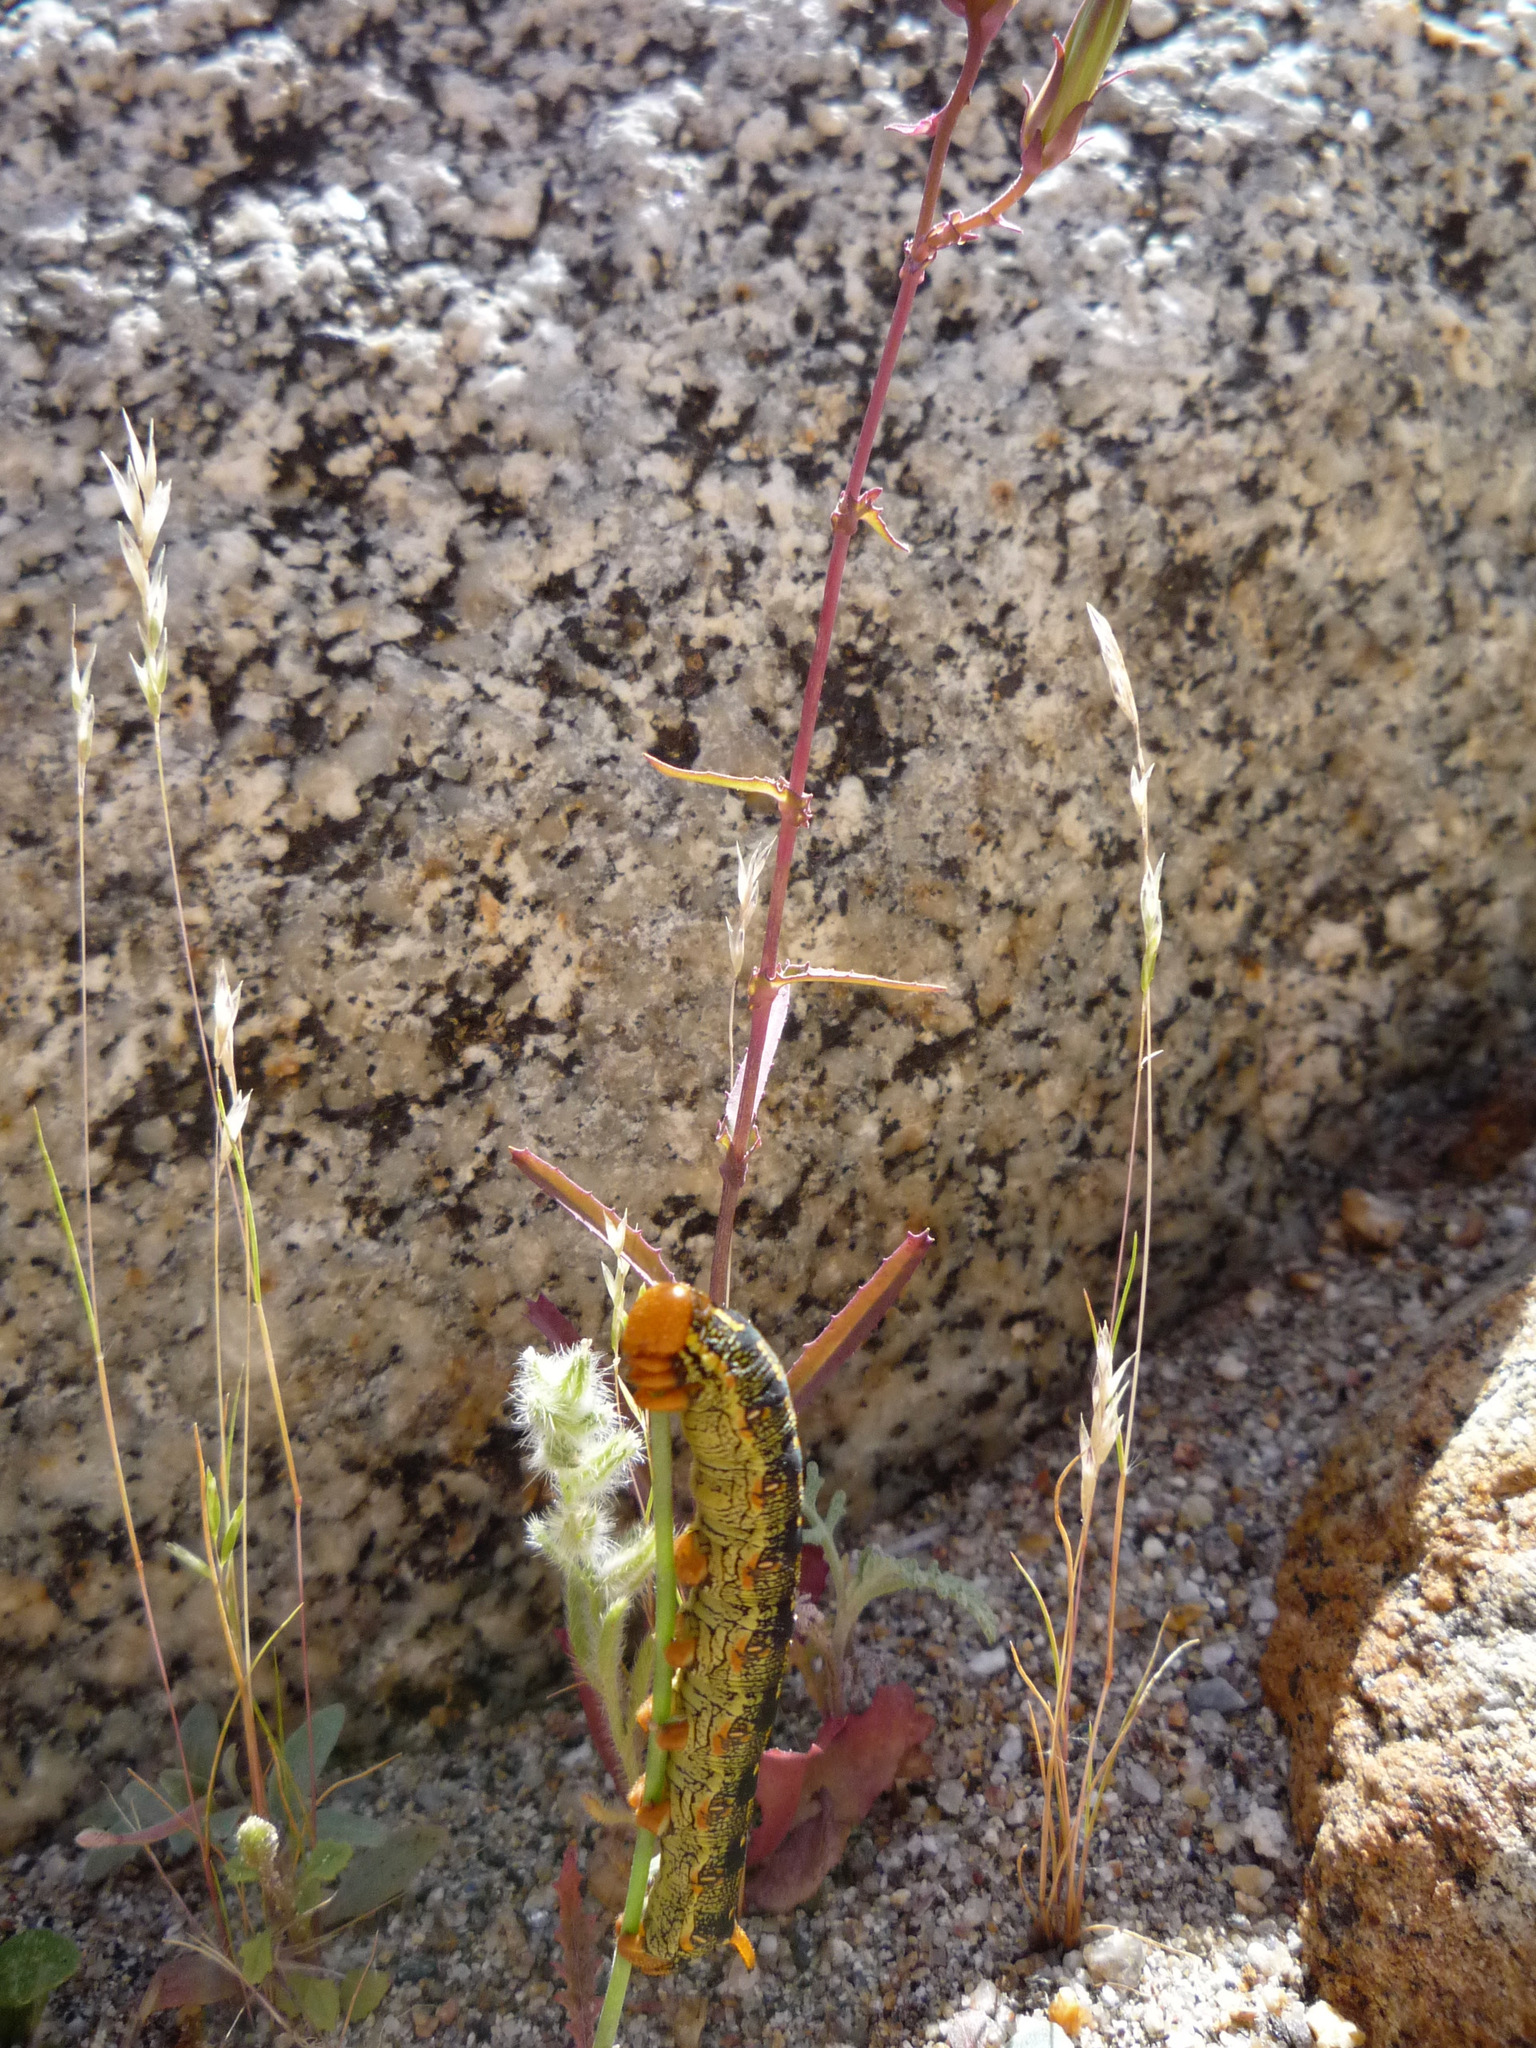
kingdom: Animalia
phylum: Arthropoda
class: Insecta
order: Lepidoptera
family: Sphingidae
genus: Hyles
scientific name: Hyles lineata
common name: White-lined sphinx
